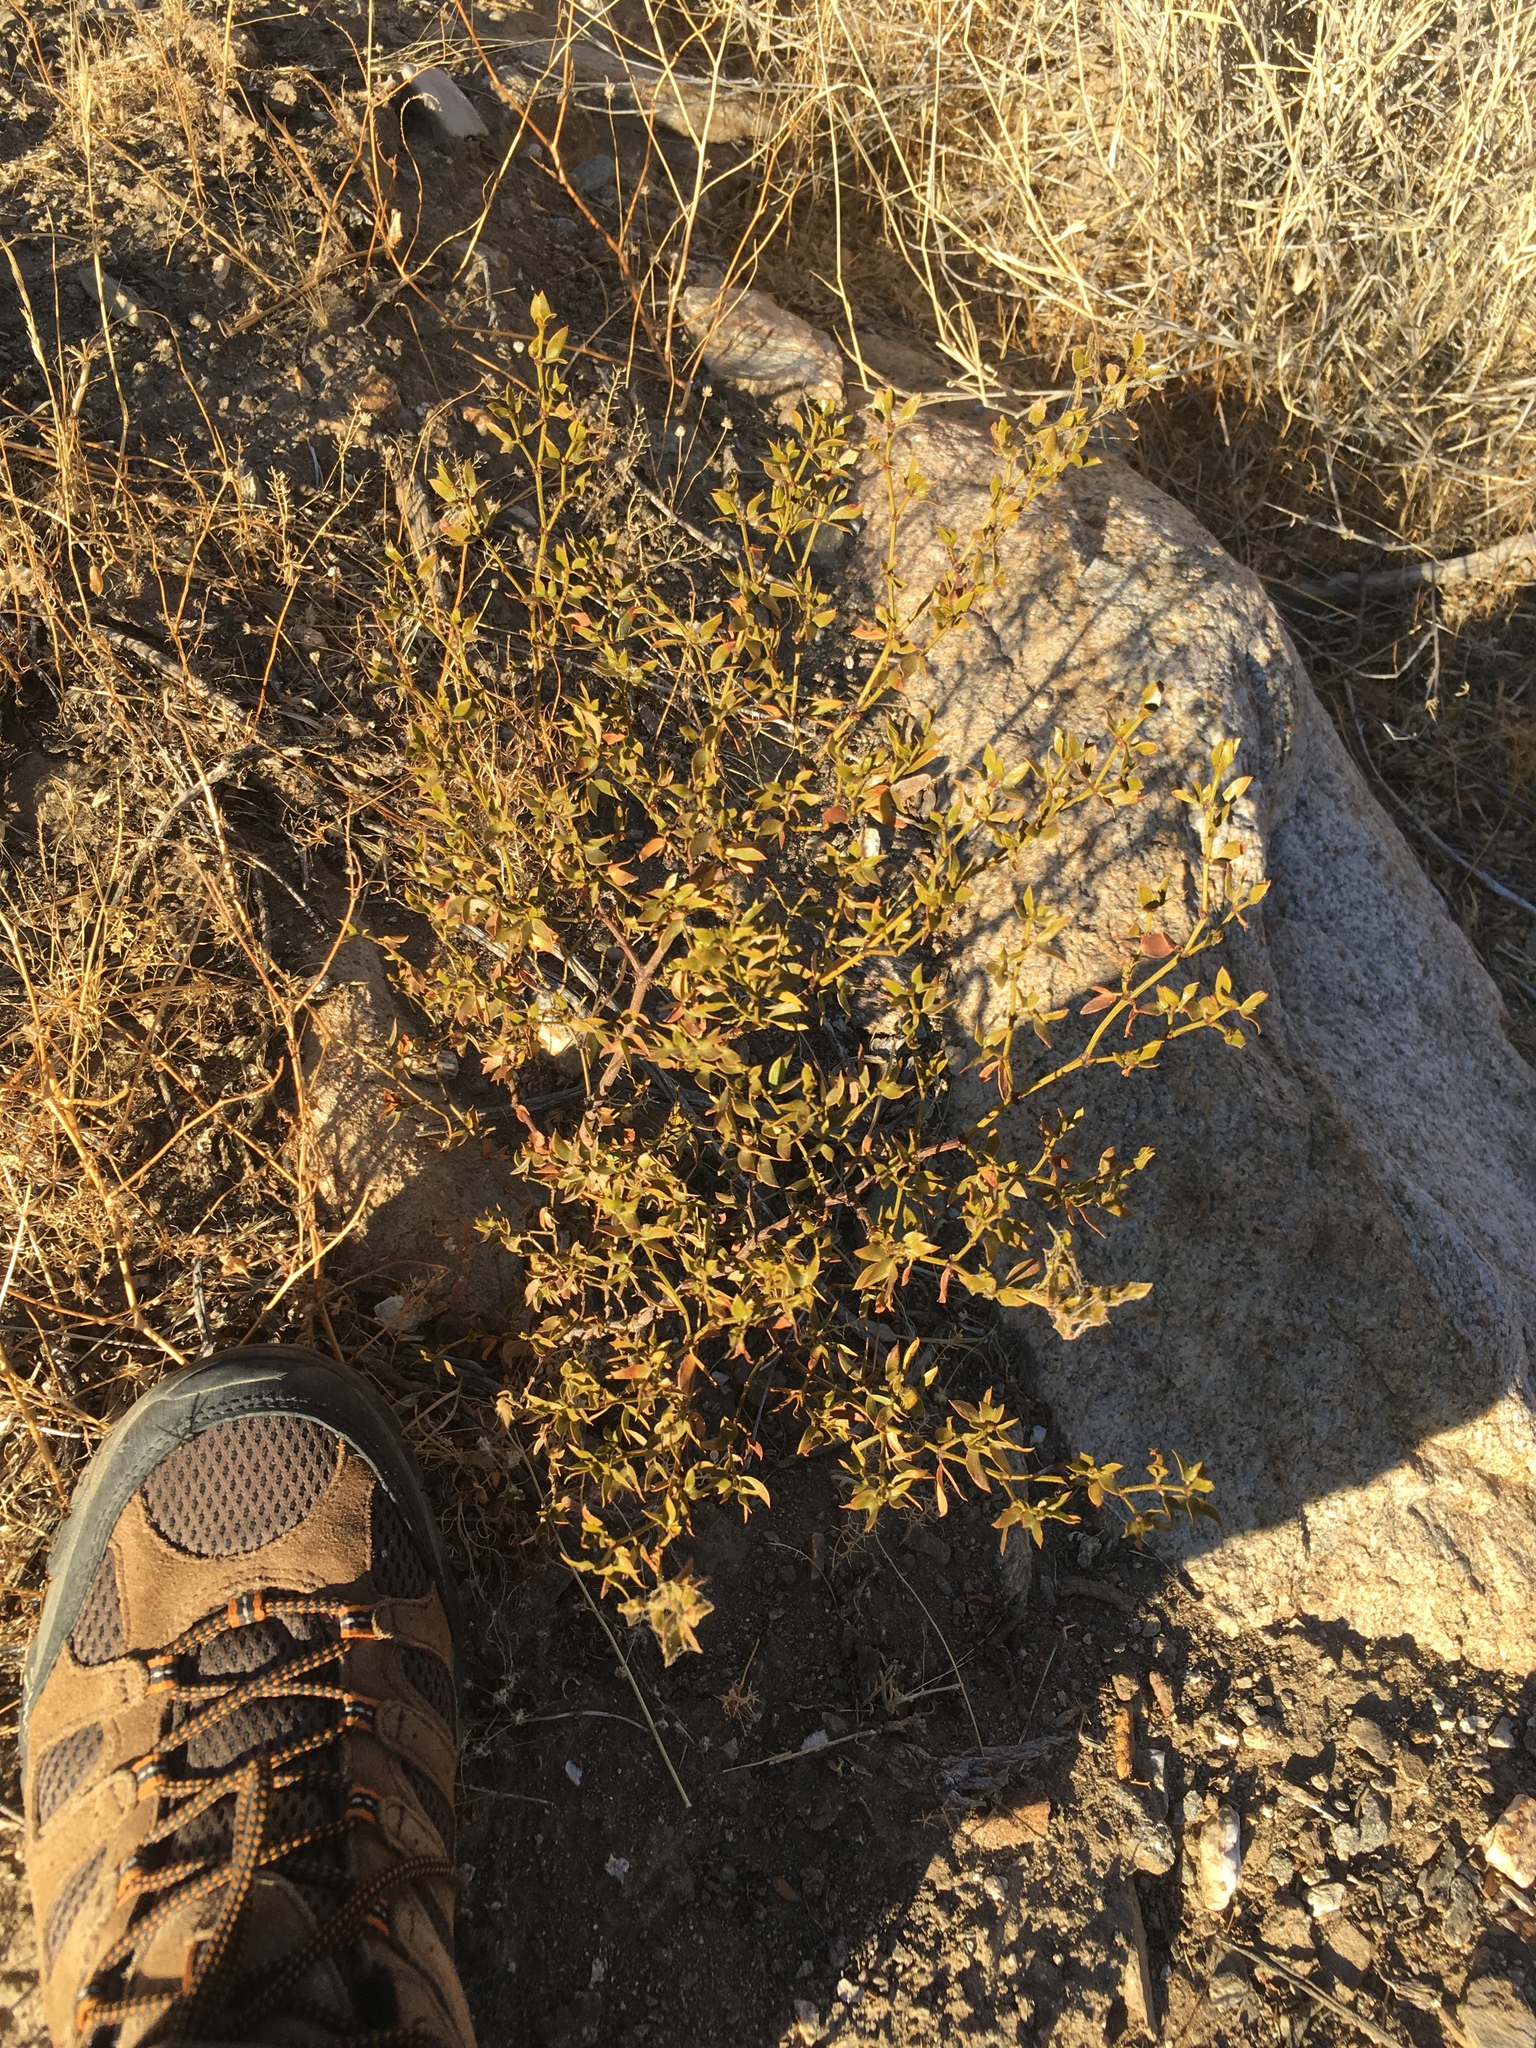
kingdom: Plantae
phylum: Tracheophyta
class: Magnoliopsida
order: Zygophyllales
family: Zygophyllaceae
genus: Larrea
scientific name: Larrea tridentata
